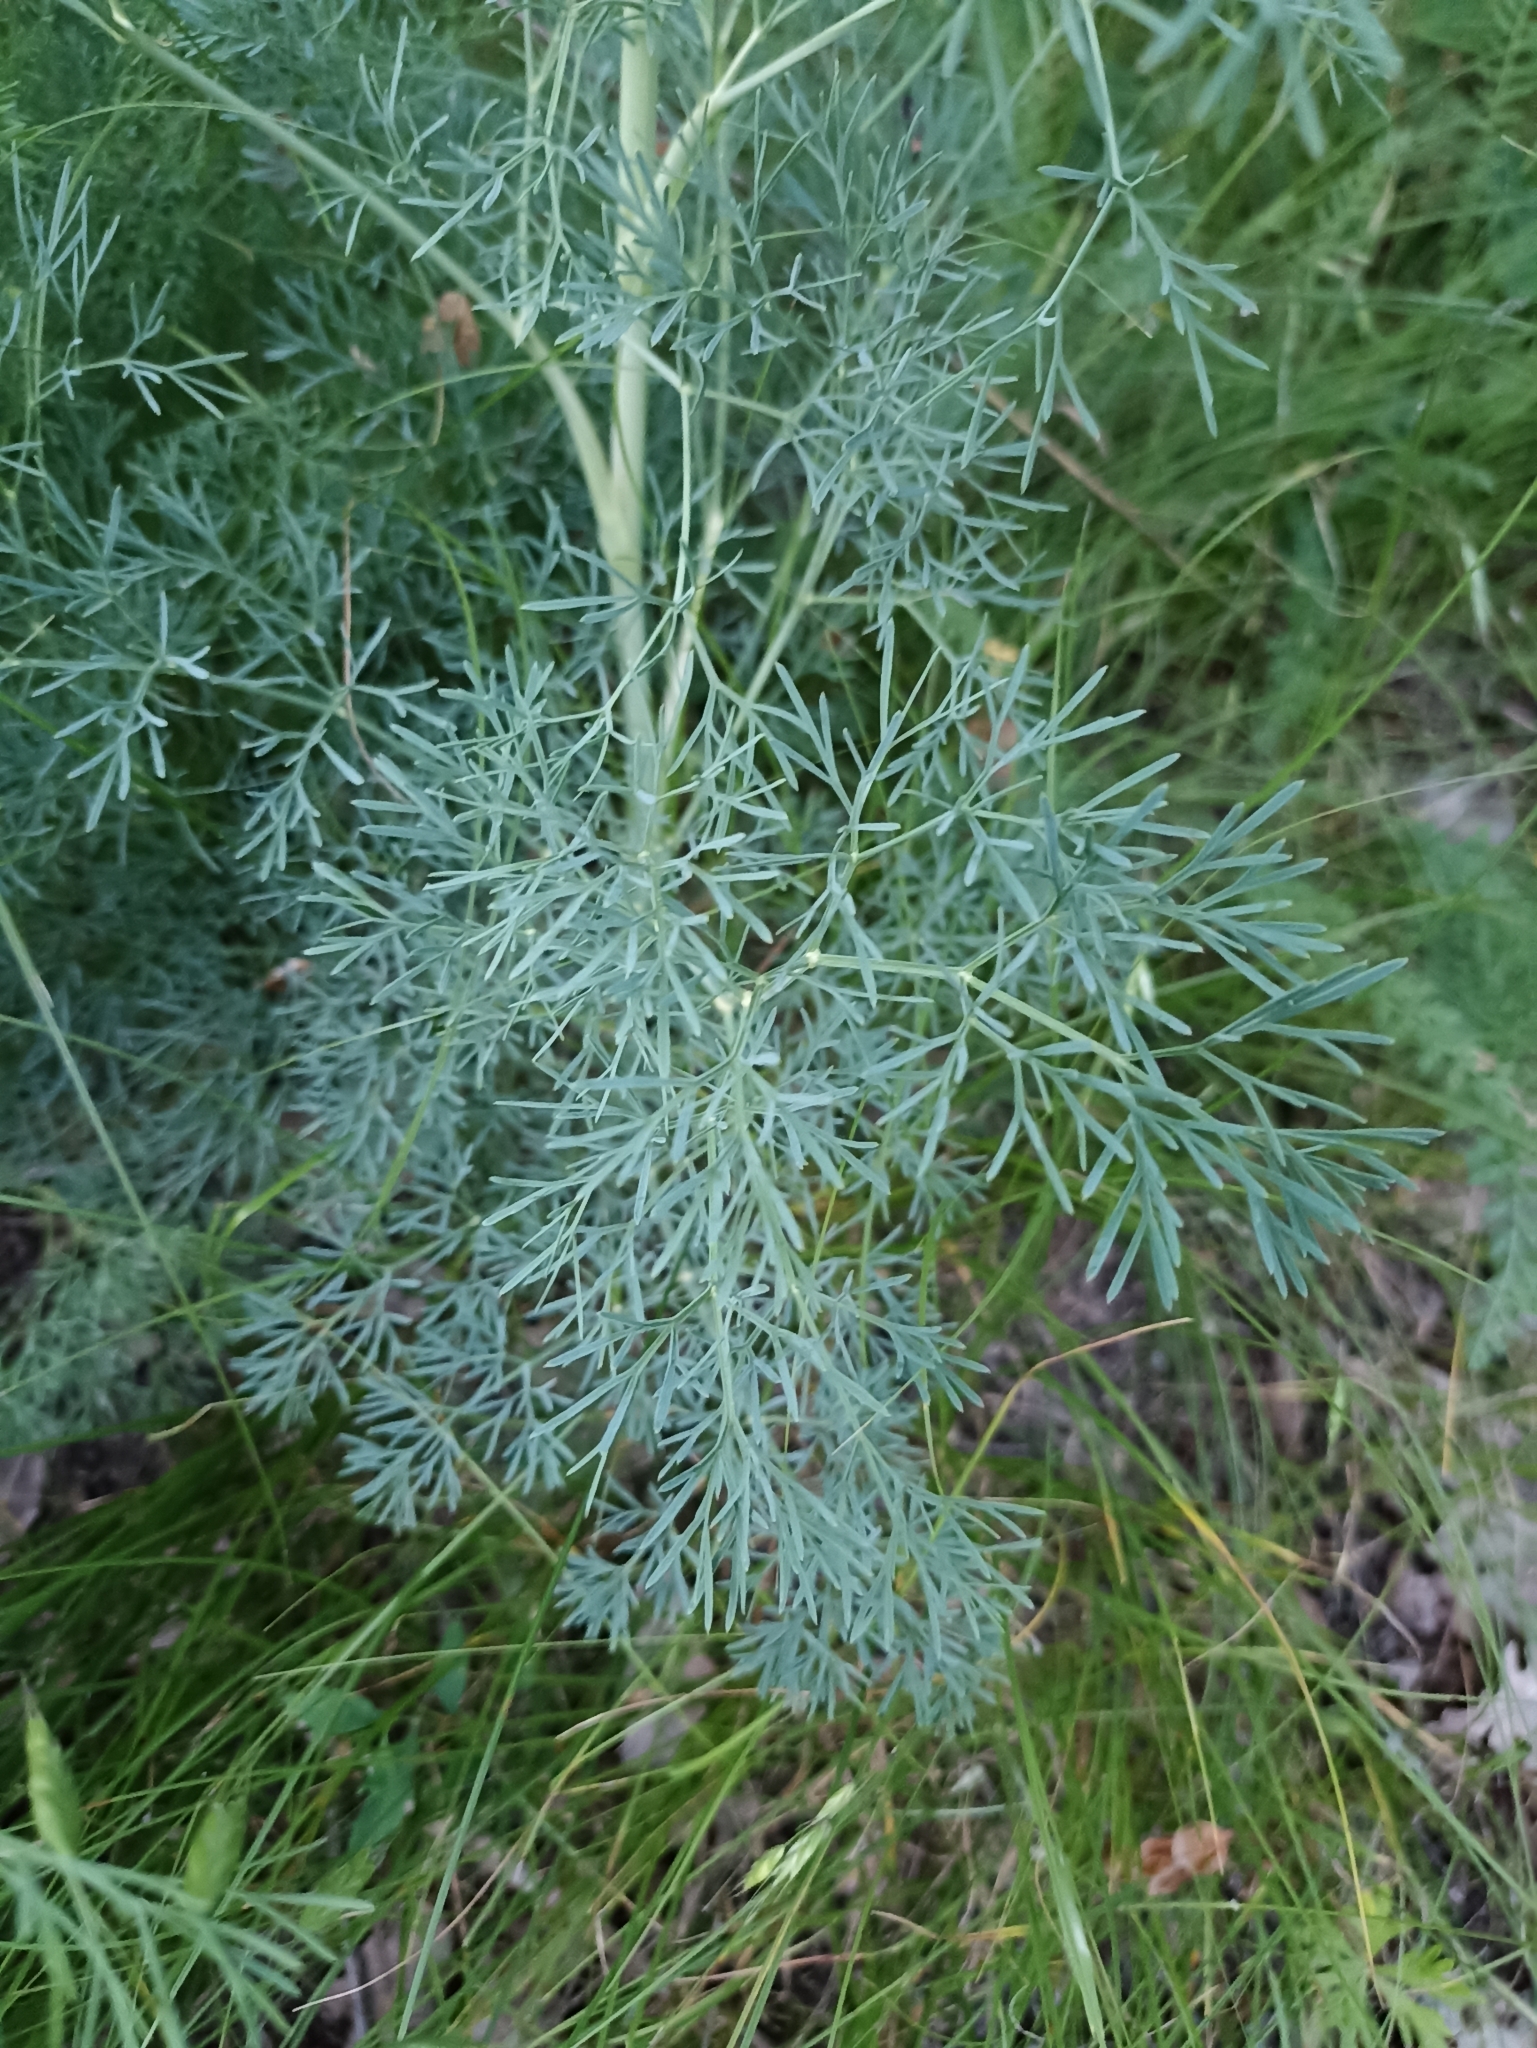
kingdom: Plantae
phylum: Tracheophyta
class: Magnoliopsida
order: Apiales
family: Apiaceae
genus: Seseli
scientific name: Seseli arenarium
